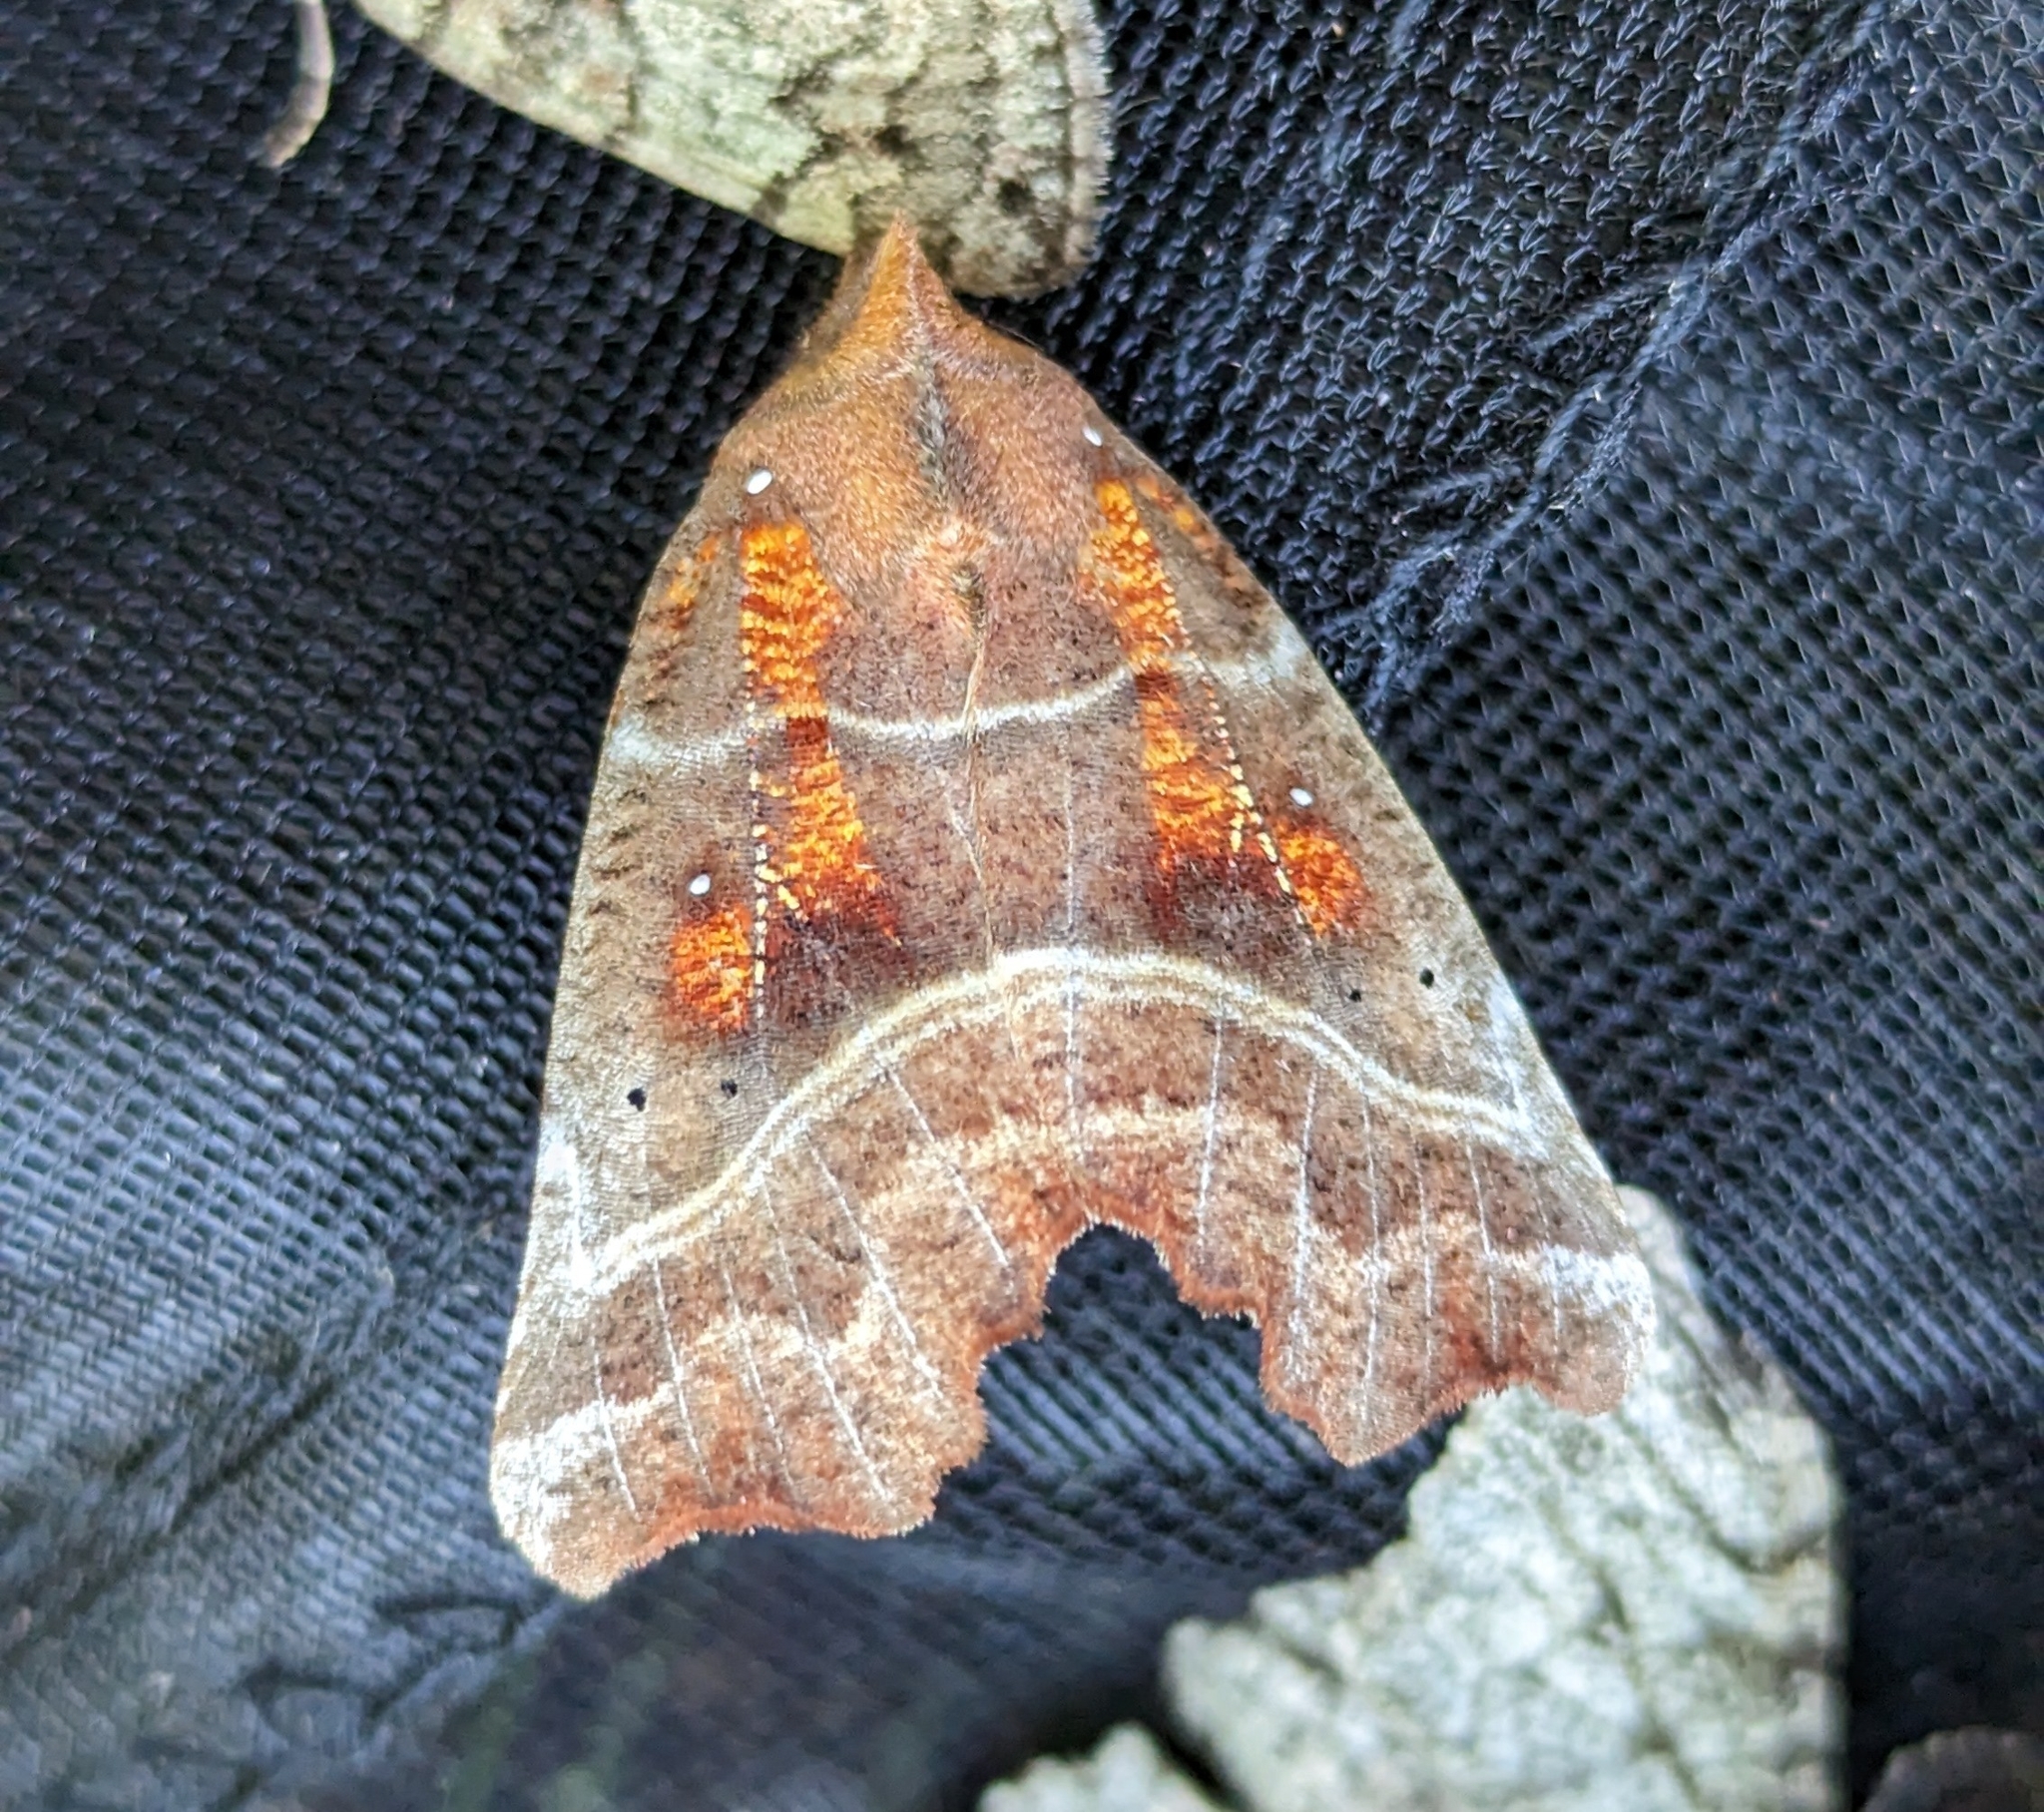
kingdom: Animalia
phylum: Arthropoda
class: Insecta
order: Lepidoptera
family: Erebidae
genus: Scoliopteryx
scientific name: Scoliopteryx libatrix
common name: Herald
